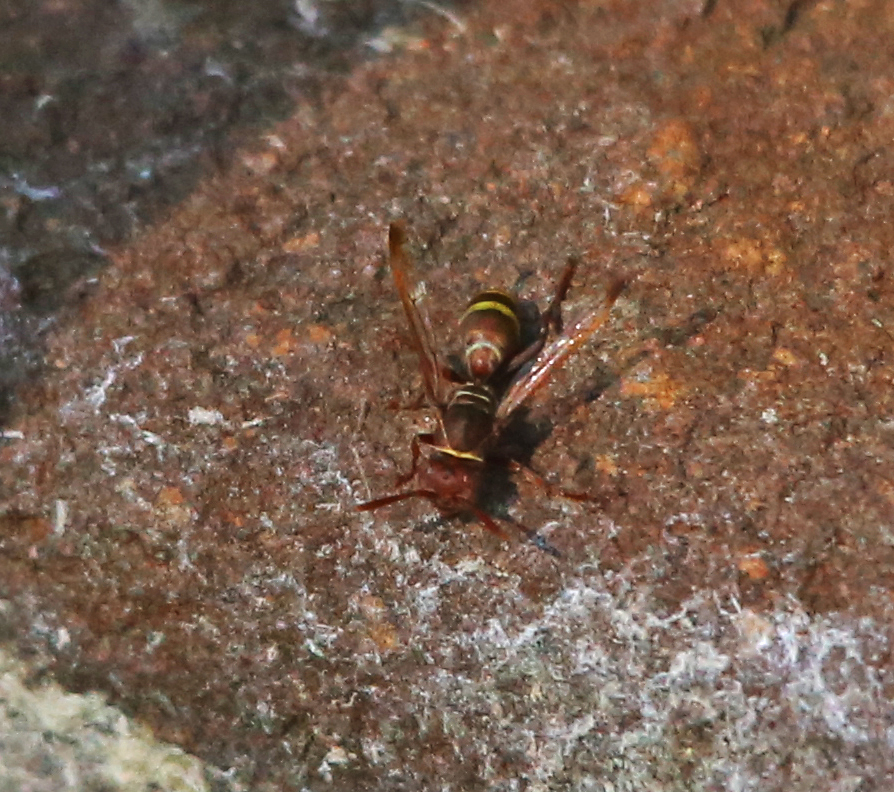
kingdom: Animalia
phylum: Arthropoda
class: Insecta
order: Hymenoptera
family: Eumenidae
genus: Polistes
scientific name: Polistes
